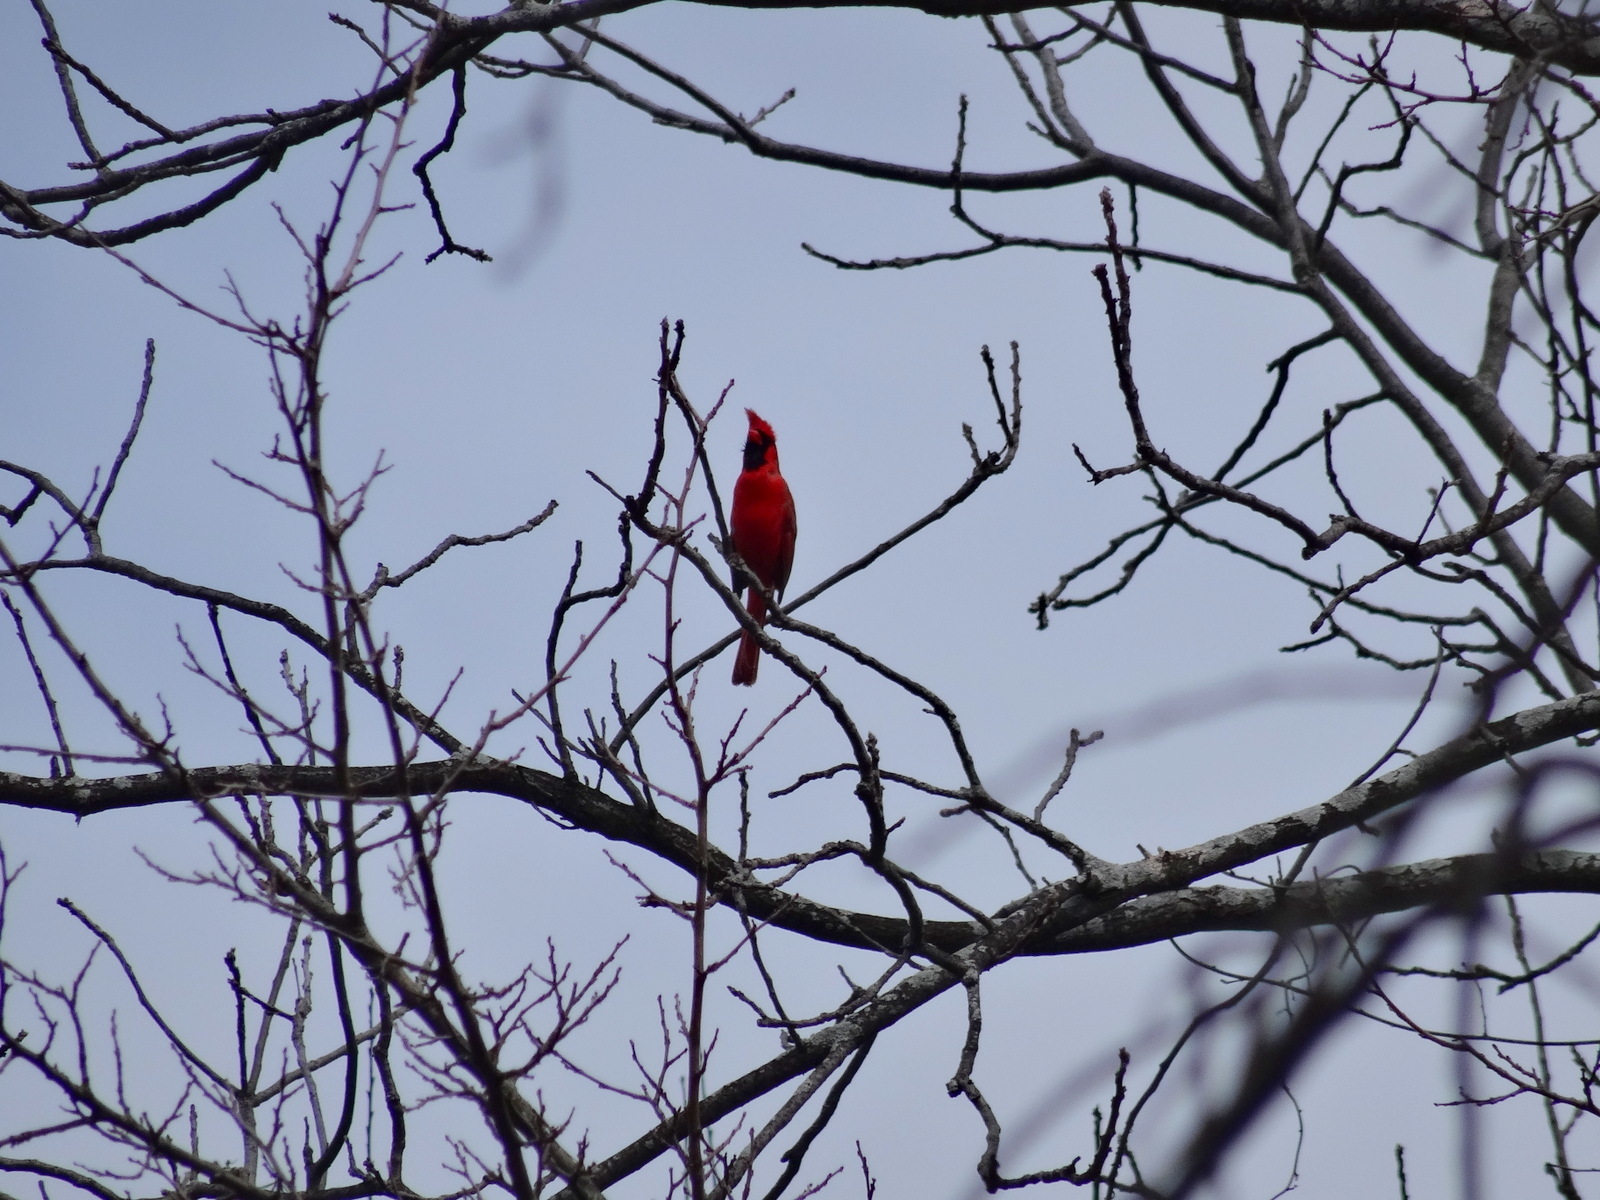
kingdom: Animalia
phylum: Chordata
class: Aves
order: Passeriformes
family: Cardinalidae
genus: Cardinalis
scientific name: Cardinalis cardinalis
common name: Northern cardinal
